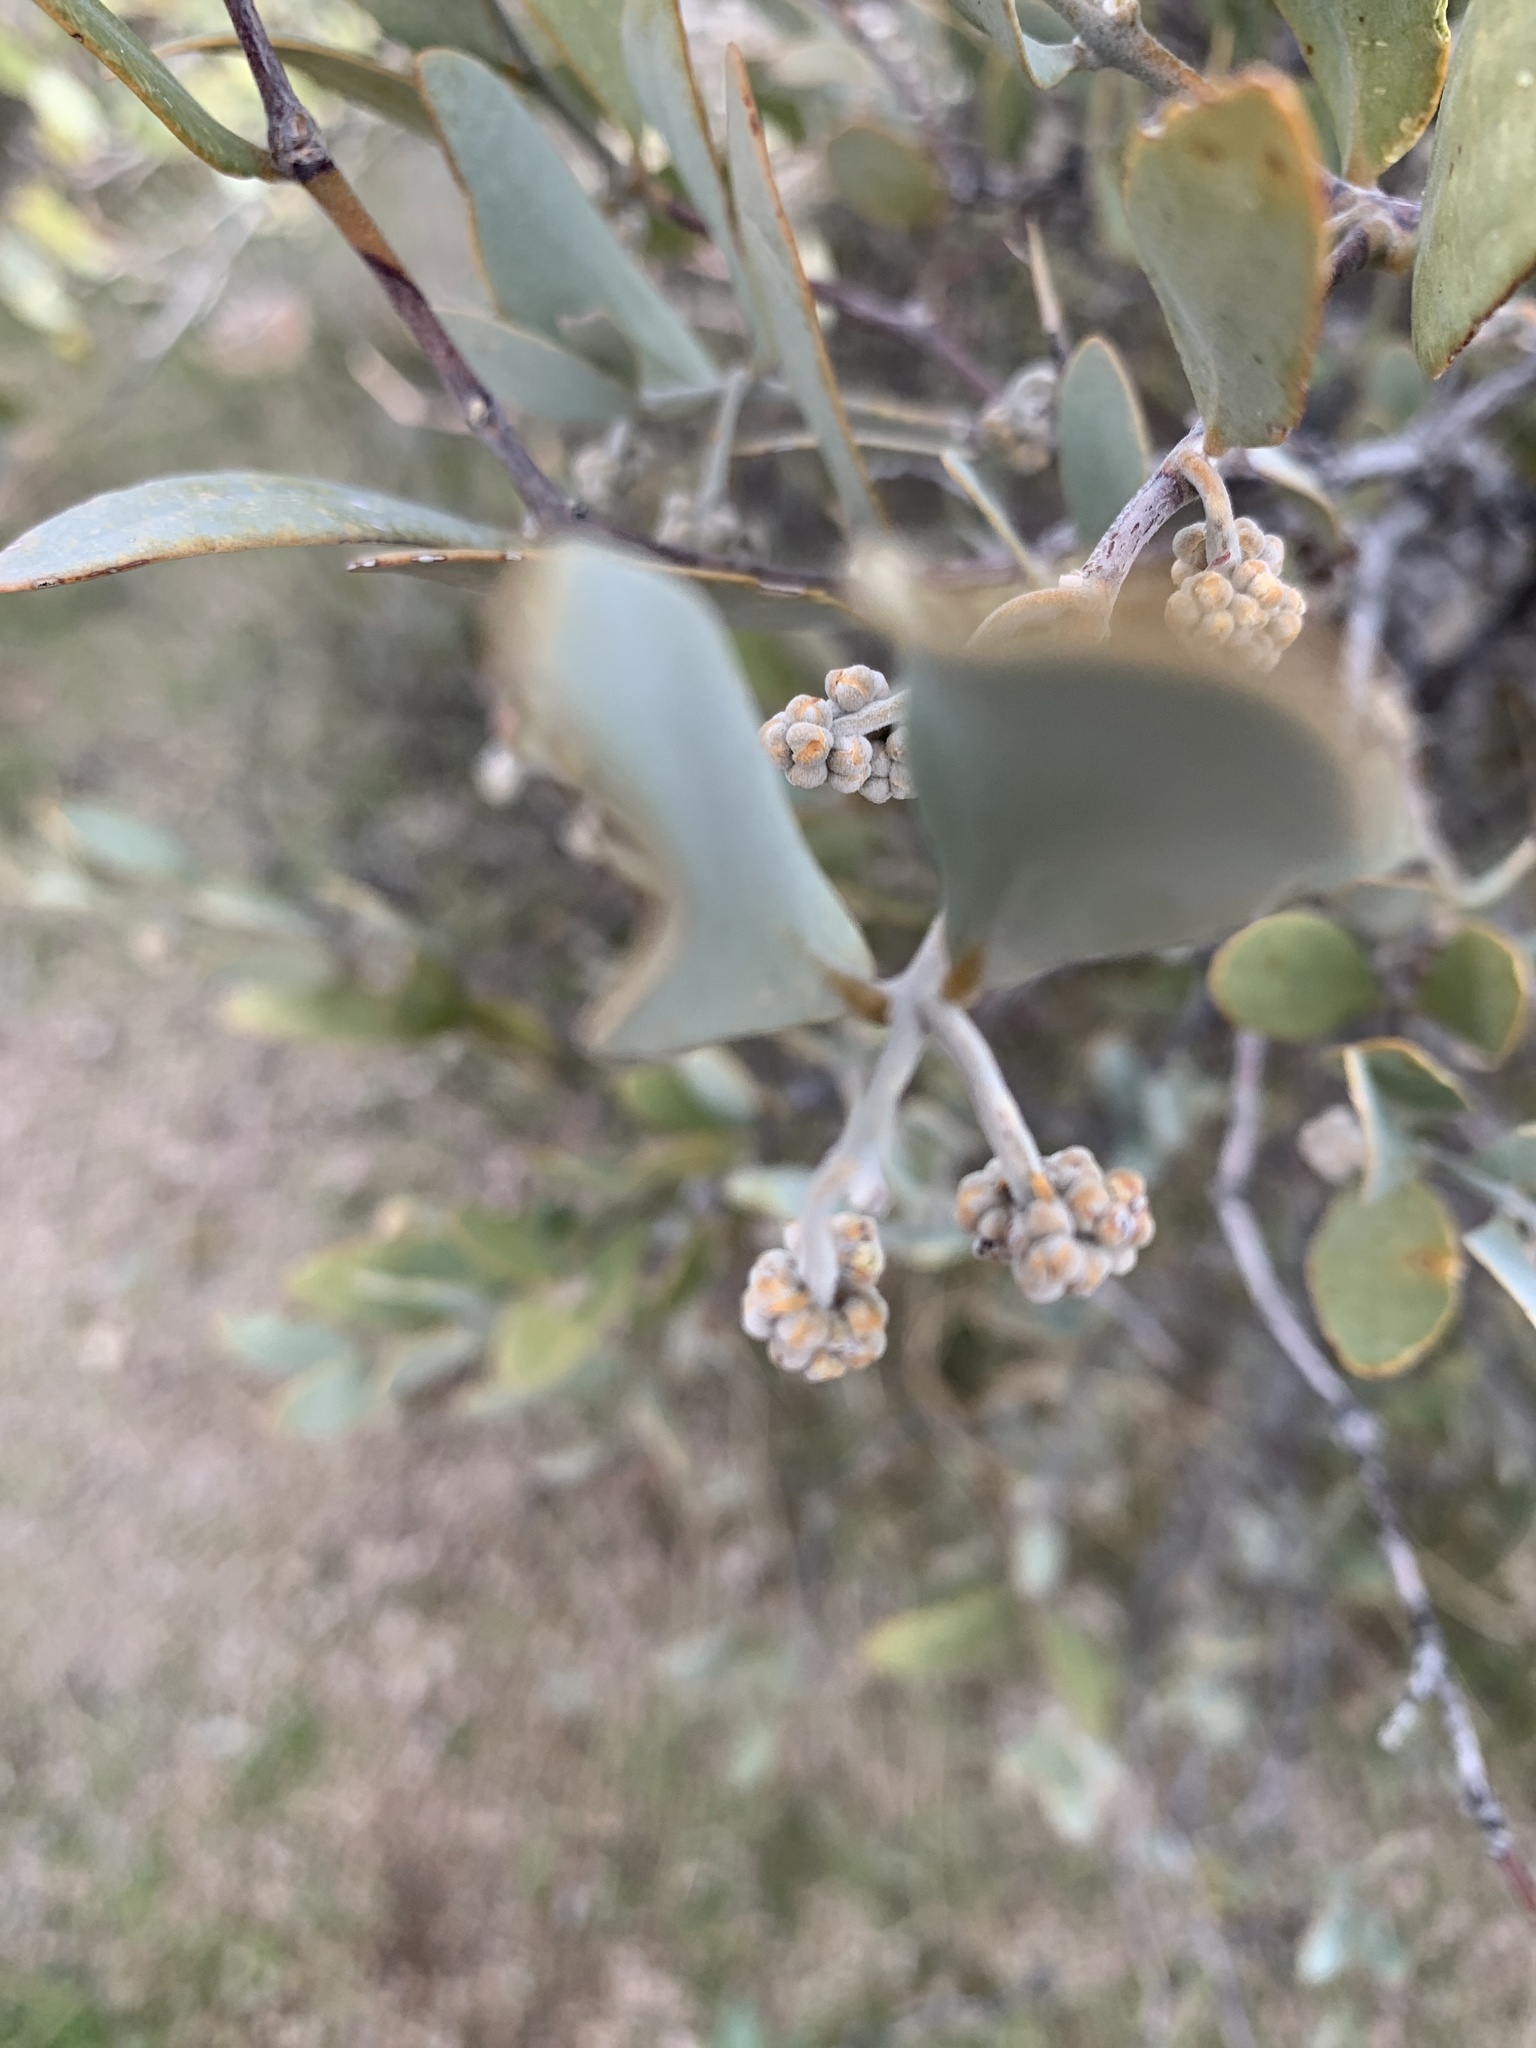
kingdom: Plantae
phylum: Tracheophyta
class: Magnoliopsida
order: Caryophyllales
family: Simmondsiaceae
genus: Simmondsia
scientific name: Simmondsia chinensis
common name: Jojoba
